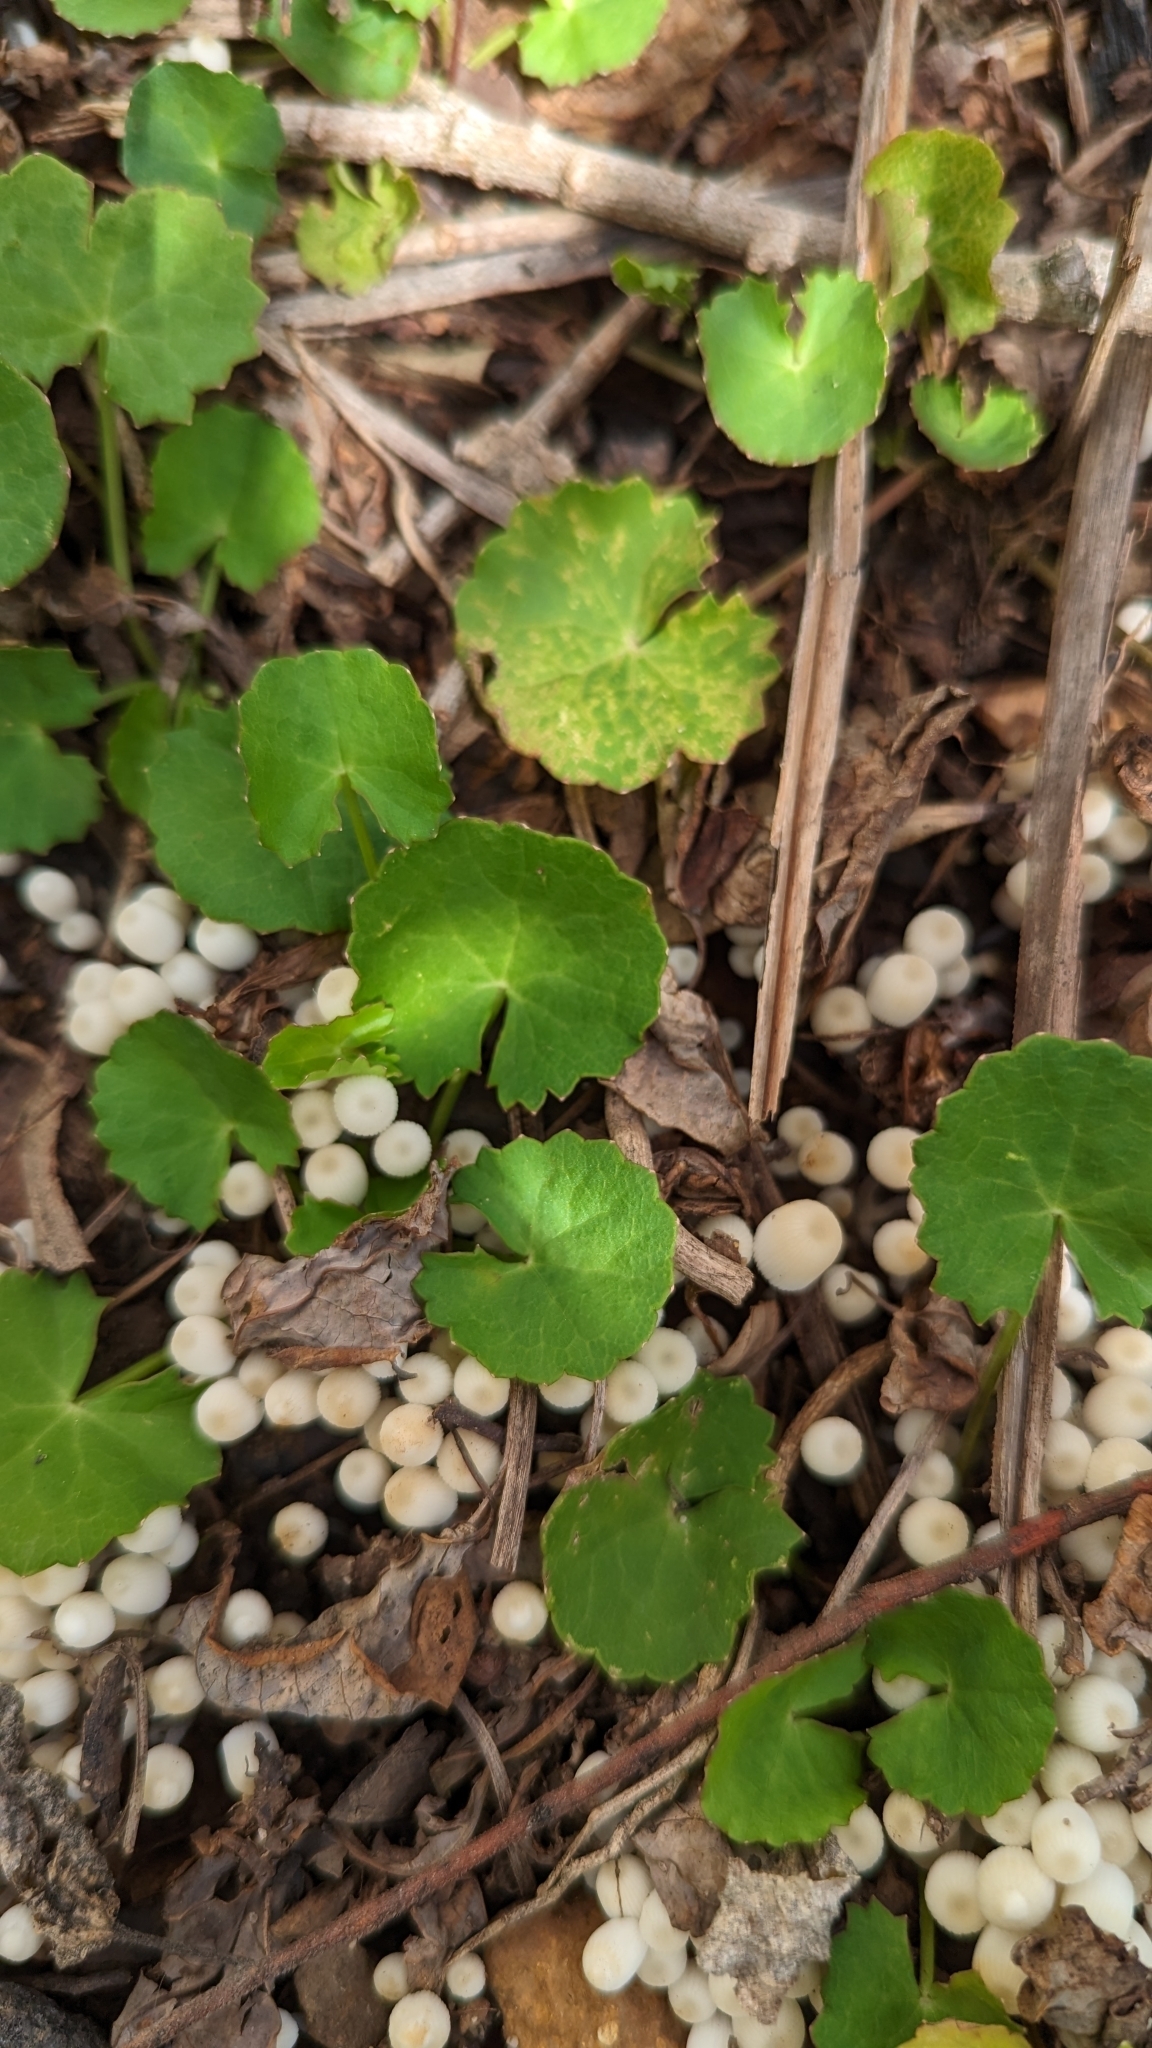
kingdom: Plantae
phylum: Tracheophyta
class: Magnoliopsida
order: Apiales
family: Apiaceae
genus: Centella
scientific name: Centella asiatica
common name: Spadeleaf
